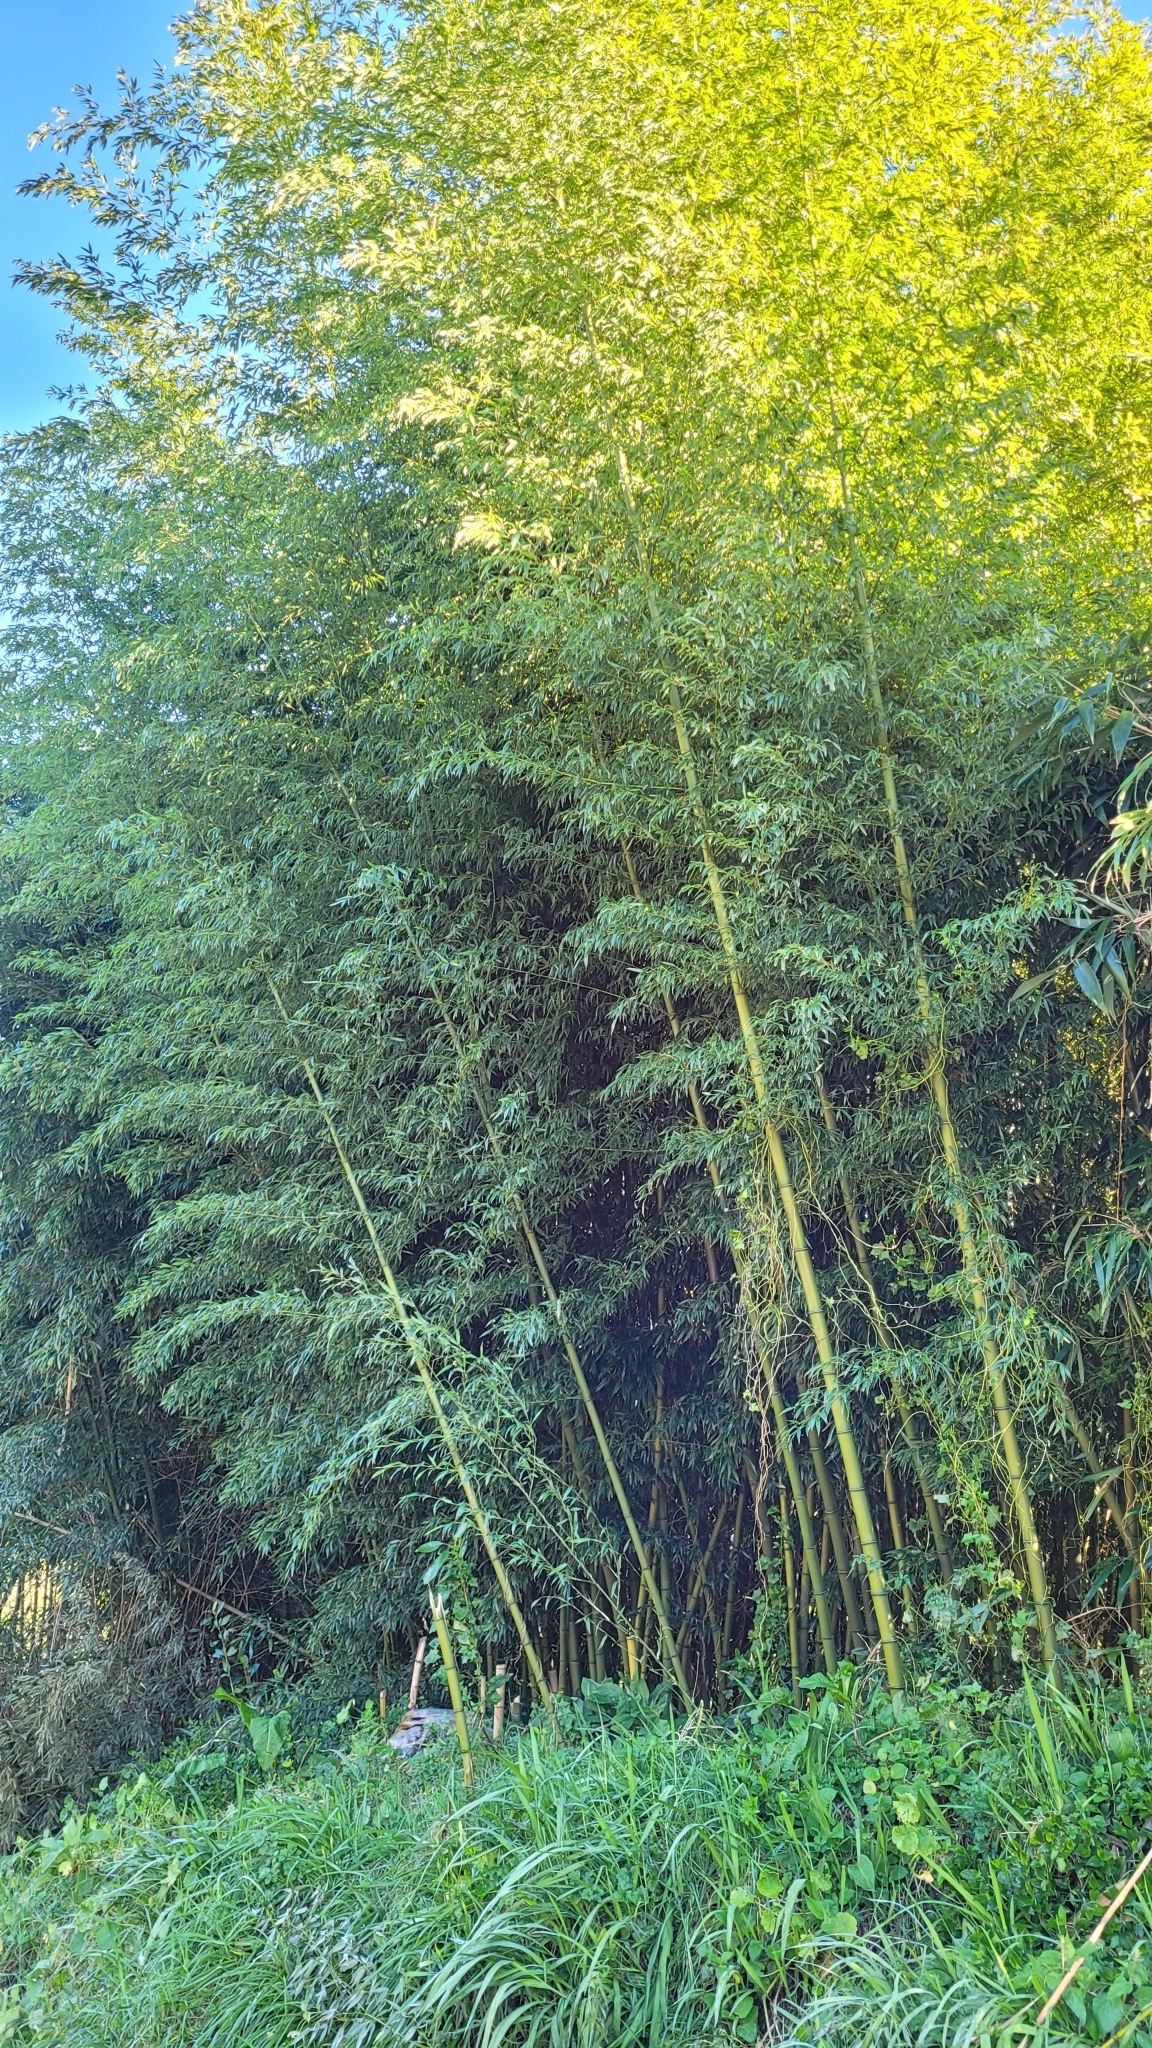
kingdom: Plantae
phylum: Tracheophyta
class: Liliopsida
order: Poales
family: Poaceae
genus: Phyllostachys
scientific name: Phyllostachys aurea
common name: Golden bamboo
